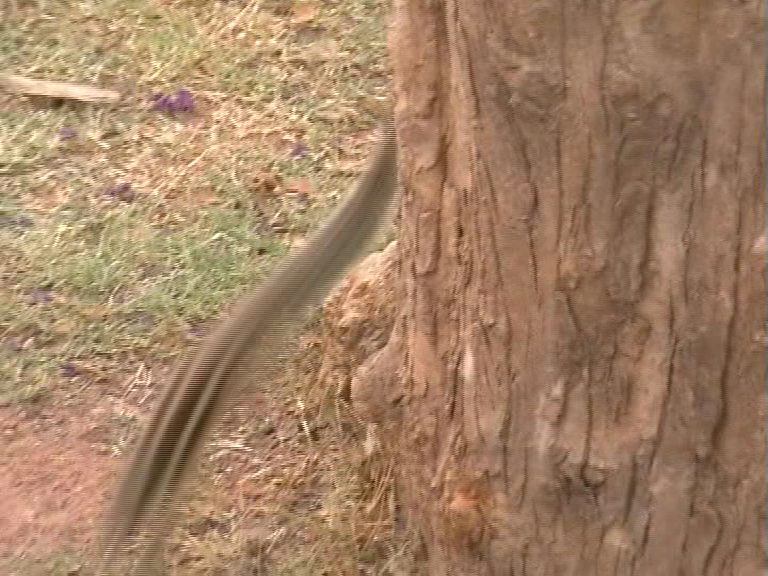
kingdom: Animalia
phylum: Chordata
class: Mammalia
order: Rodentia
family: Sciuridae
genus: Funambulus
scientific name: Funambulus pennantii
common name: Northern palm squirrel
